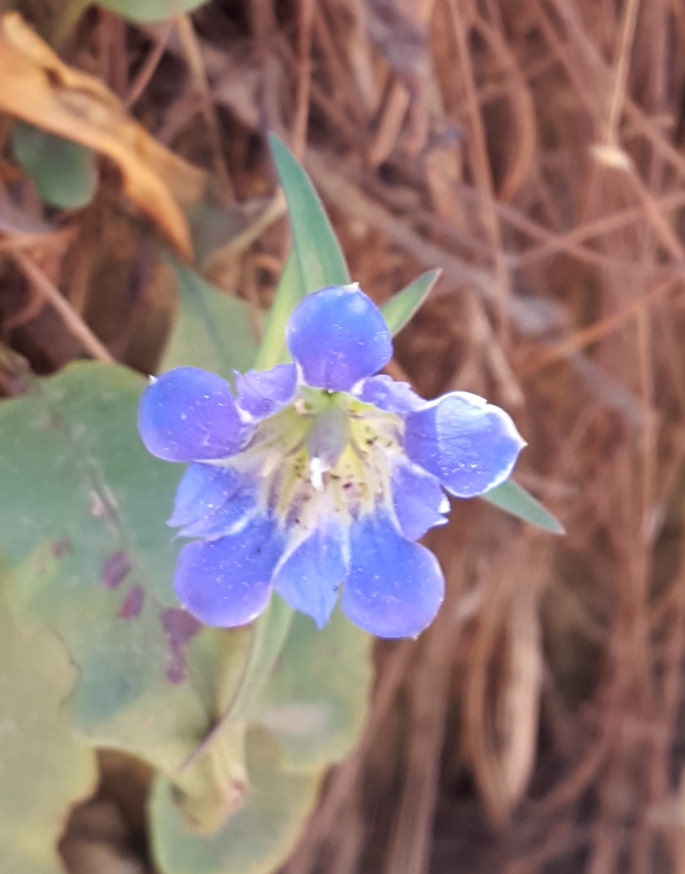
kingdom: Plantae
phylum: Tracheophyta
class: Magnoliopsida
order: Gentianales
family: Gentianaceae
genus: Gentiana
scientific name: Gentiana laevigata
